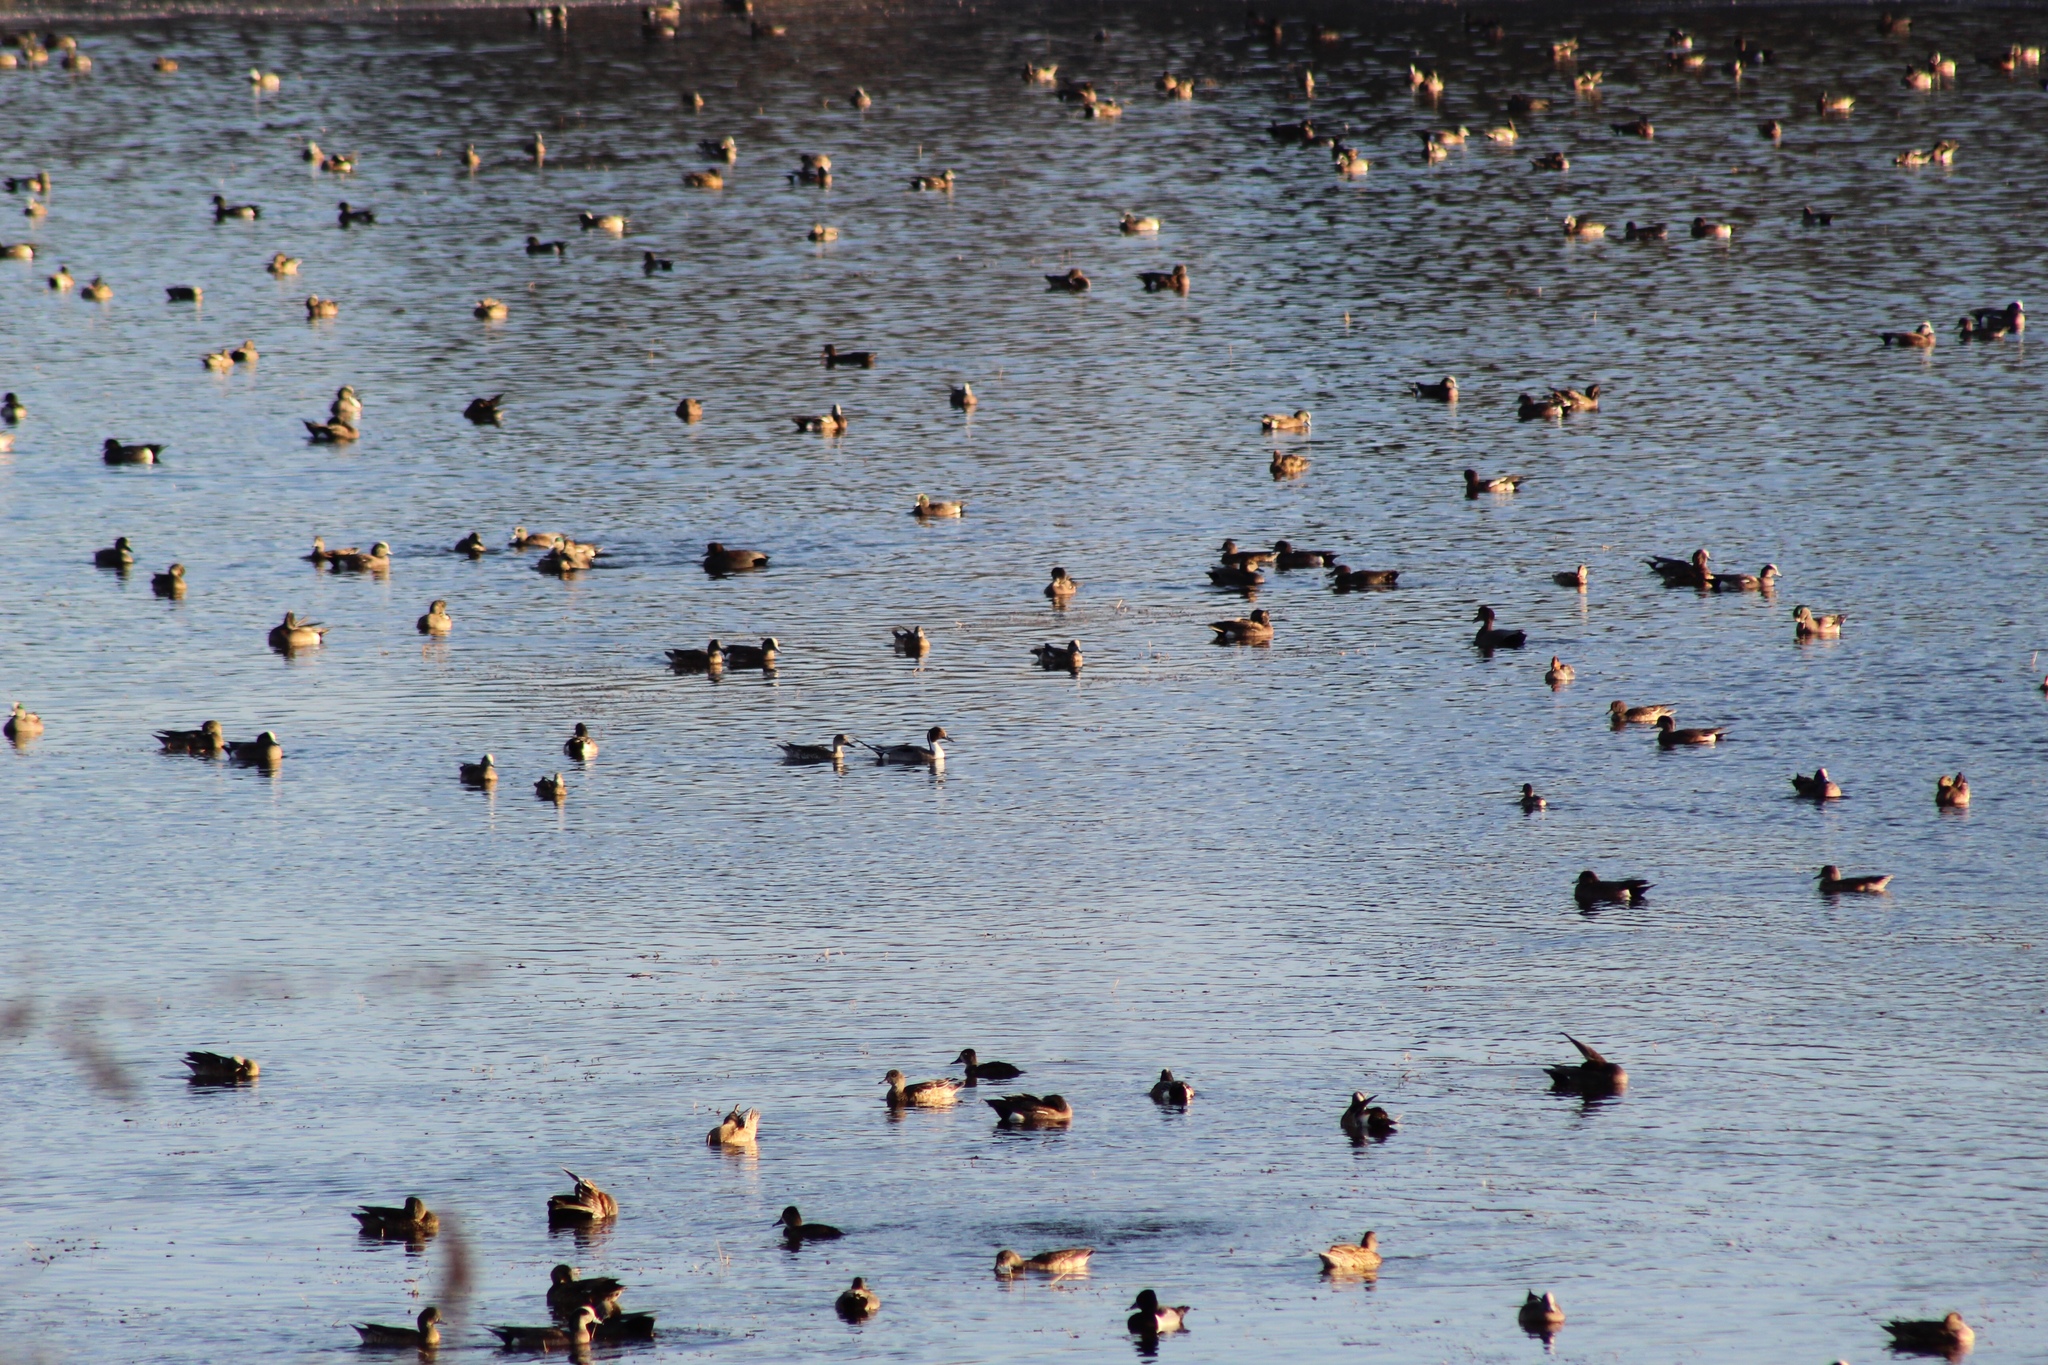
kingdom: Animalia
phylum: Chordata
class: Aves
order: Anseriformes
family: Anatidae
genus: Anas
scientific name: Anas acuta
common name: Northern pintail
